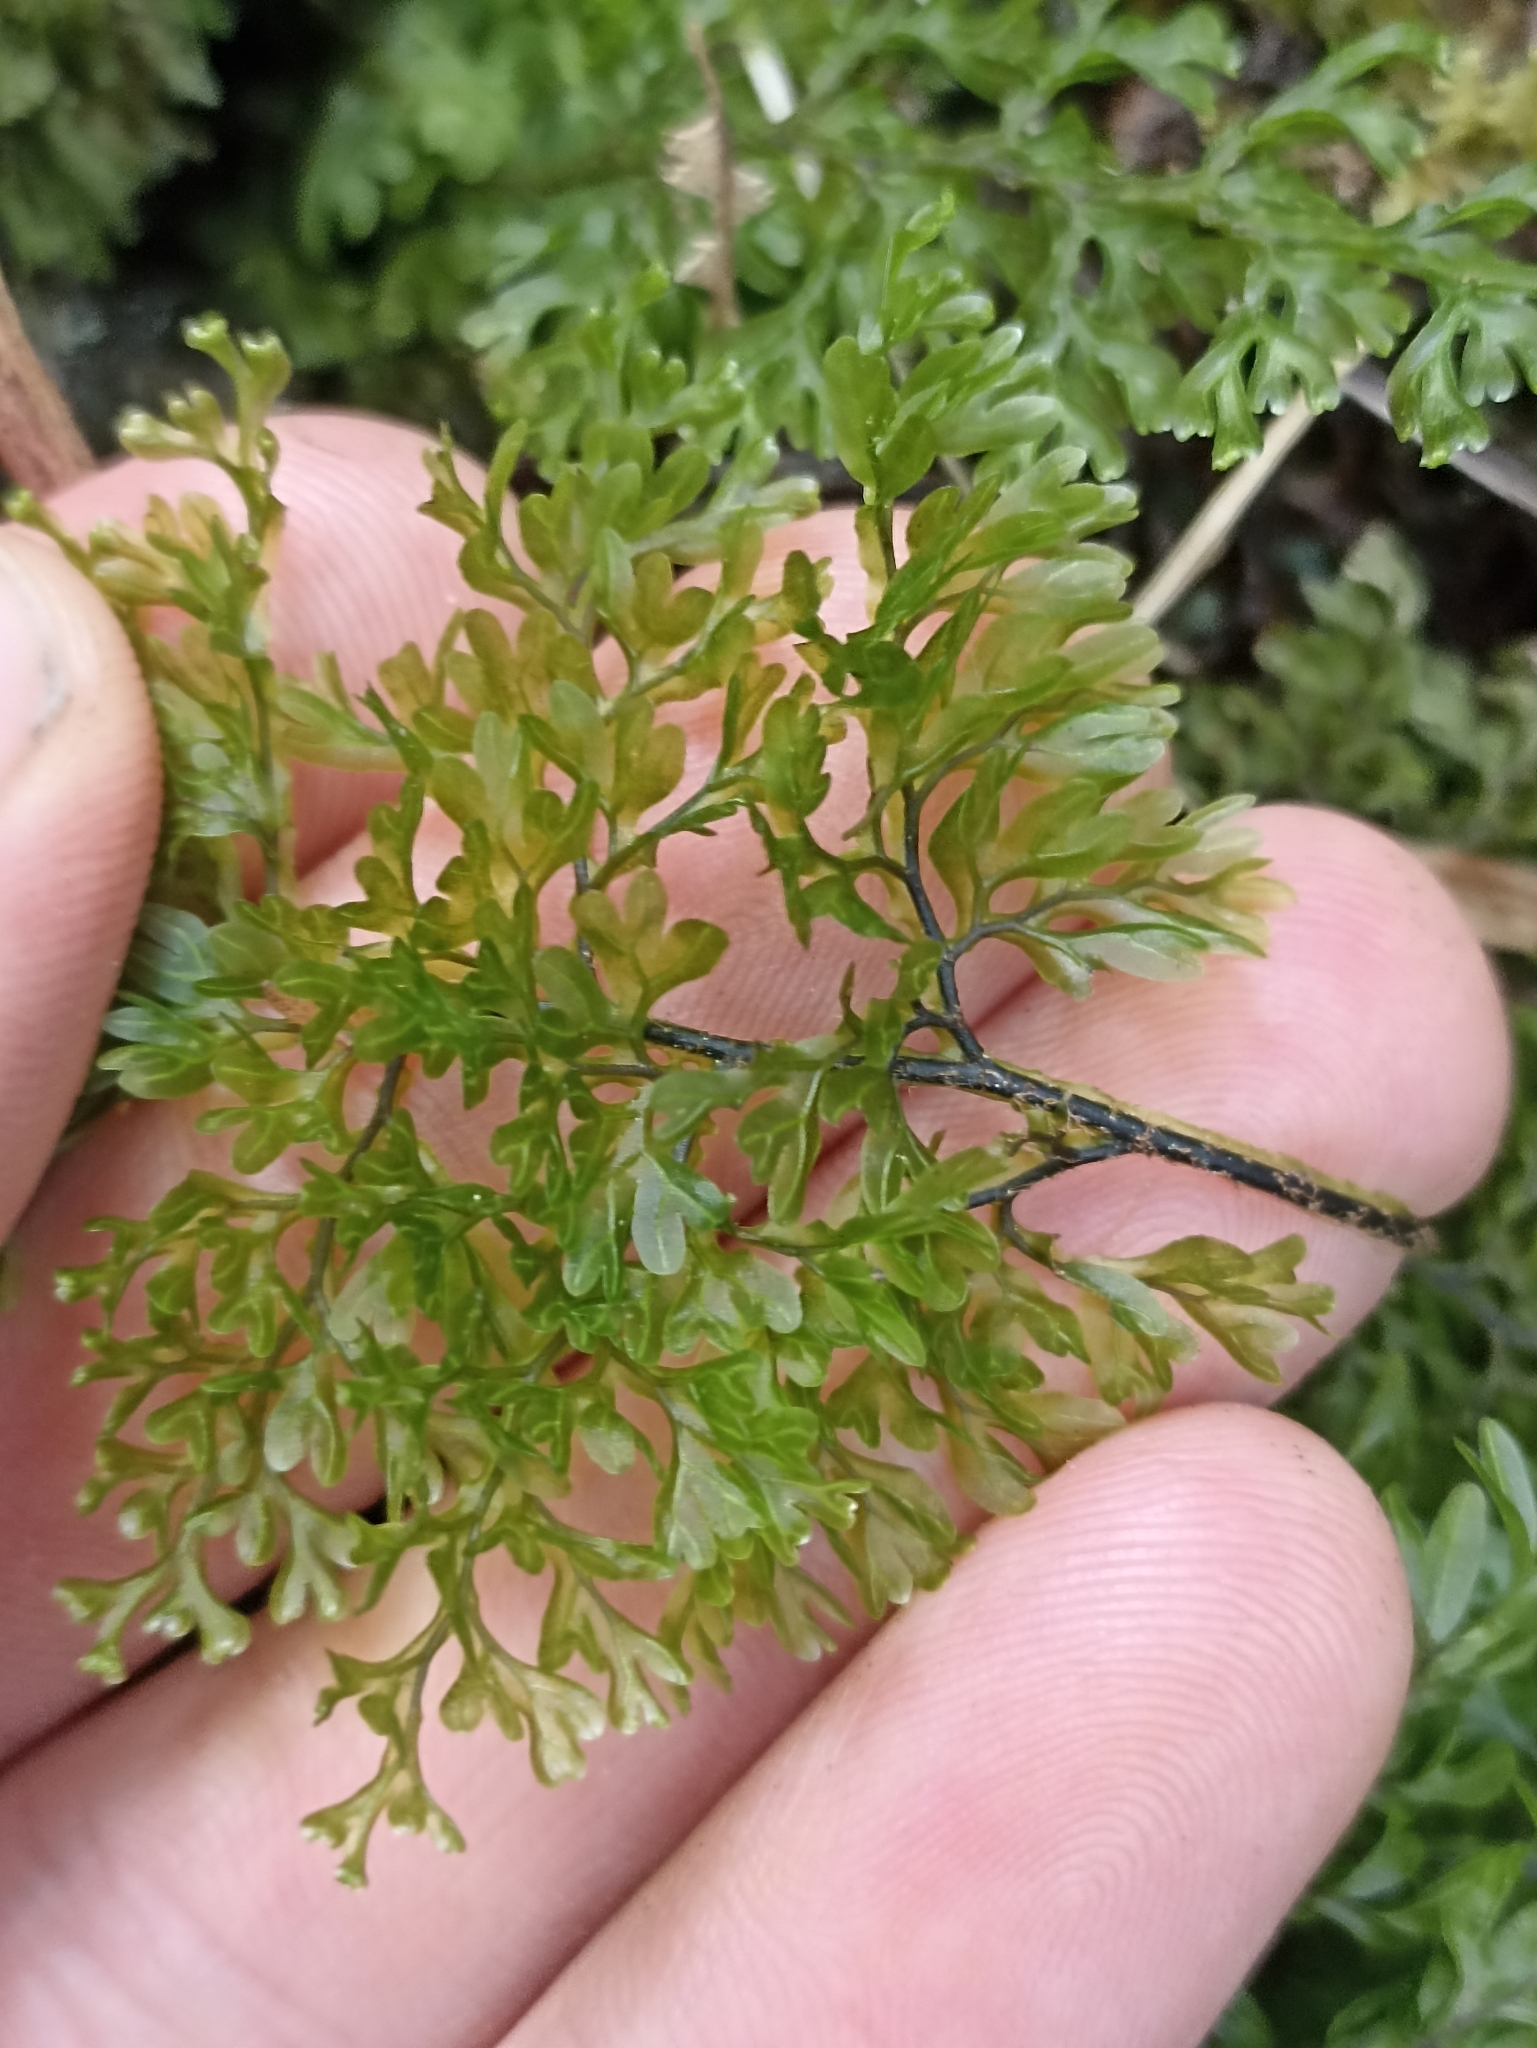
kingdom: Plantae
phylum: Tracheophyta
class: Polypodiopsida
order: Hymenophyllales
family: Hymenophyllaceae
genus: Hymenophyllum
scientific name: Hymenophyllum sanguinolentum
